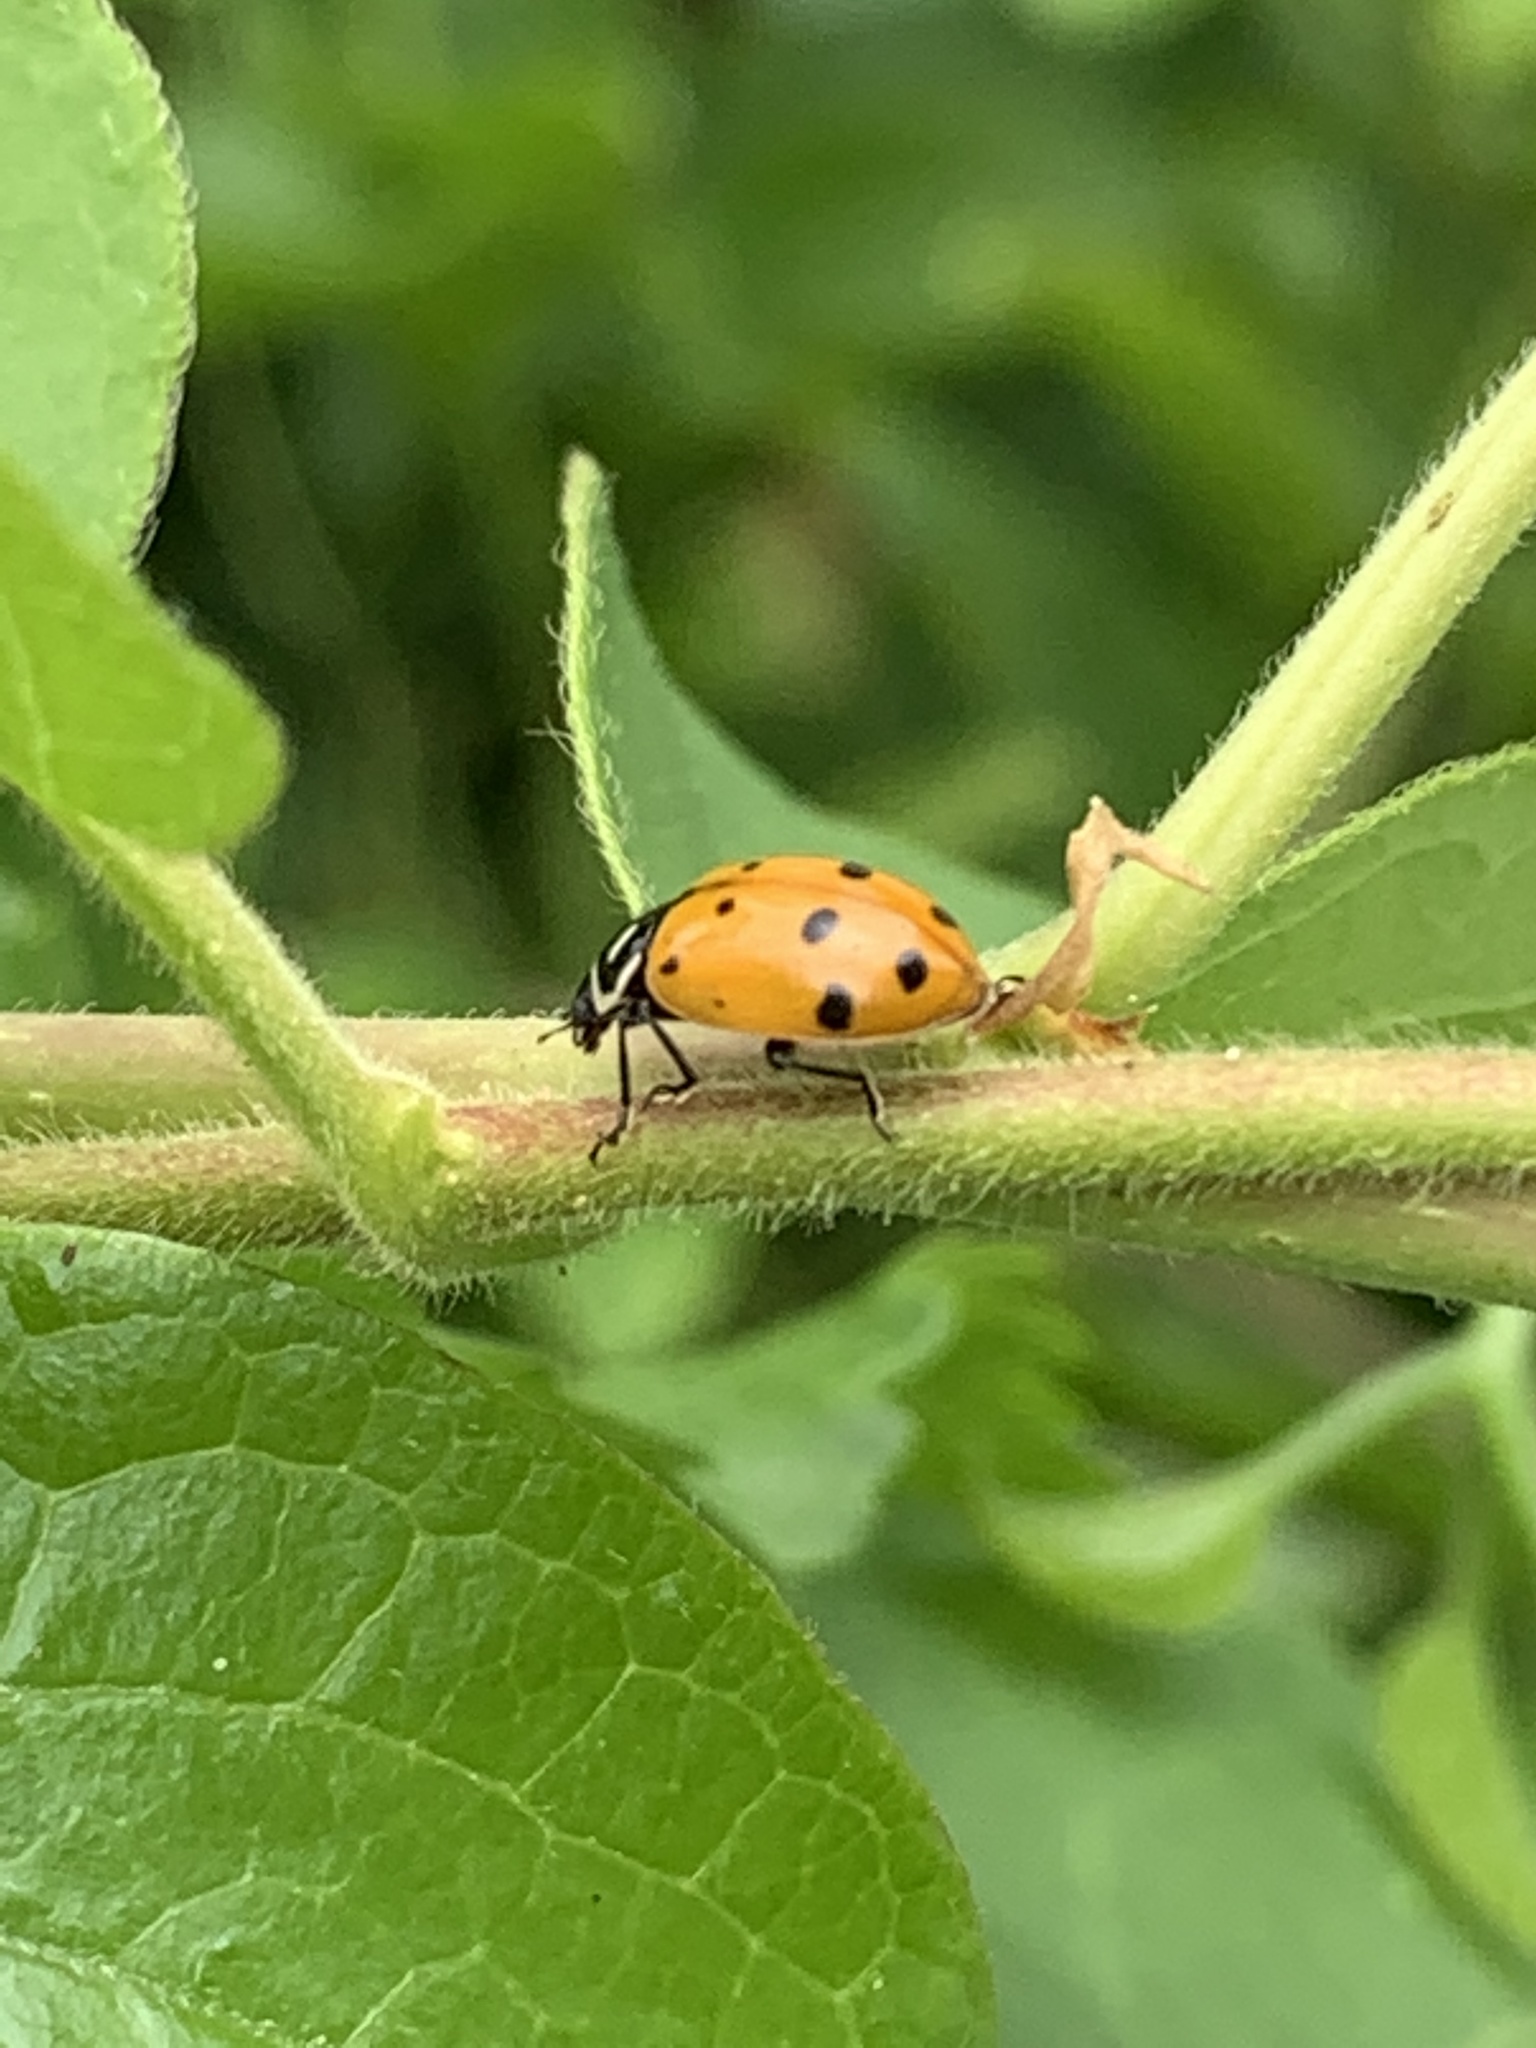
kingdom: Animalia
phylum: Arthropoda
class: Insecta
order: Coleoptera
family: Coccinellidae
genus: Hippodamia
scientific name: Hippodamia convergens
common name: Convergent lady beetle
